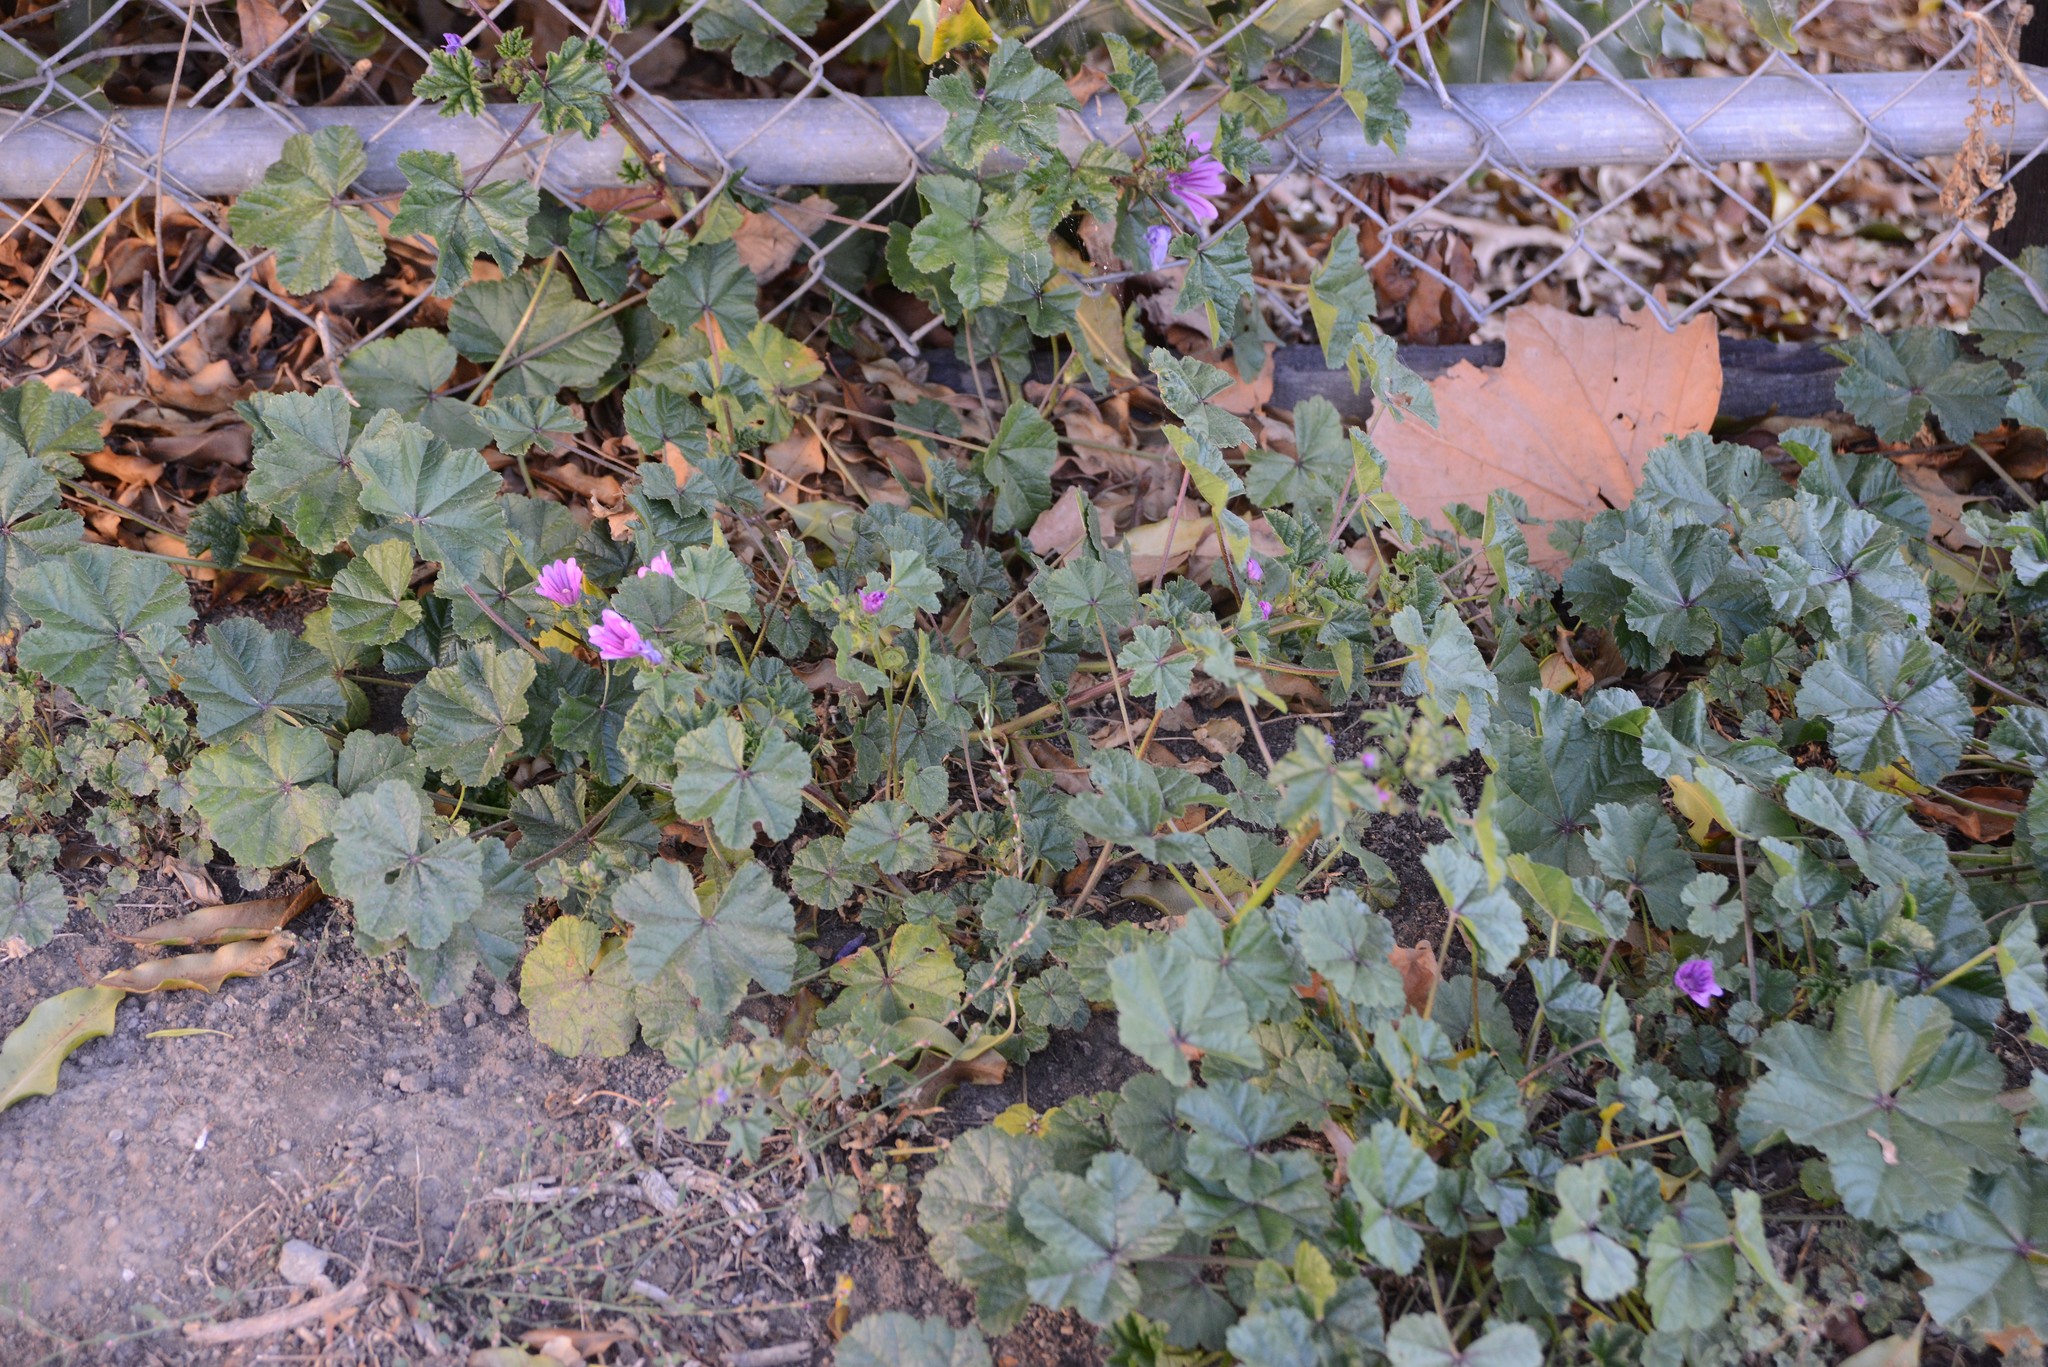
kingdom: Plantae
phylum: Tracheophyta
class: Magnoliopsida
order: Malvales
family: Malvaceae
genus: Malva
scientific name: Malva sylvestris
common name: Common mallow
